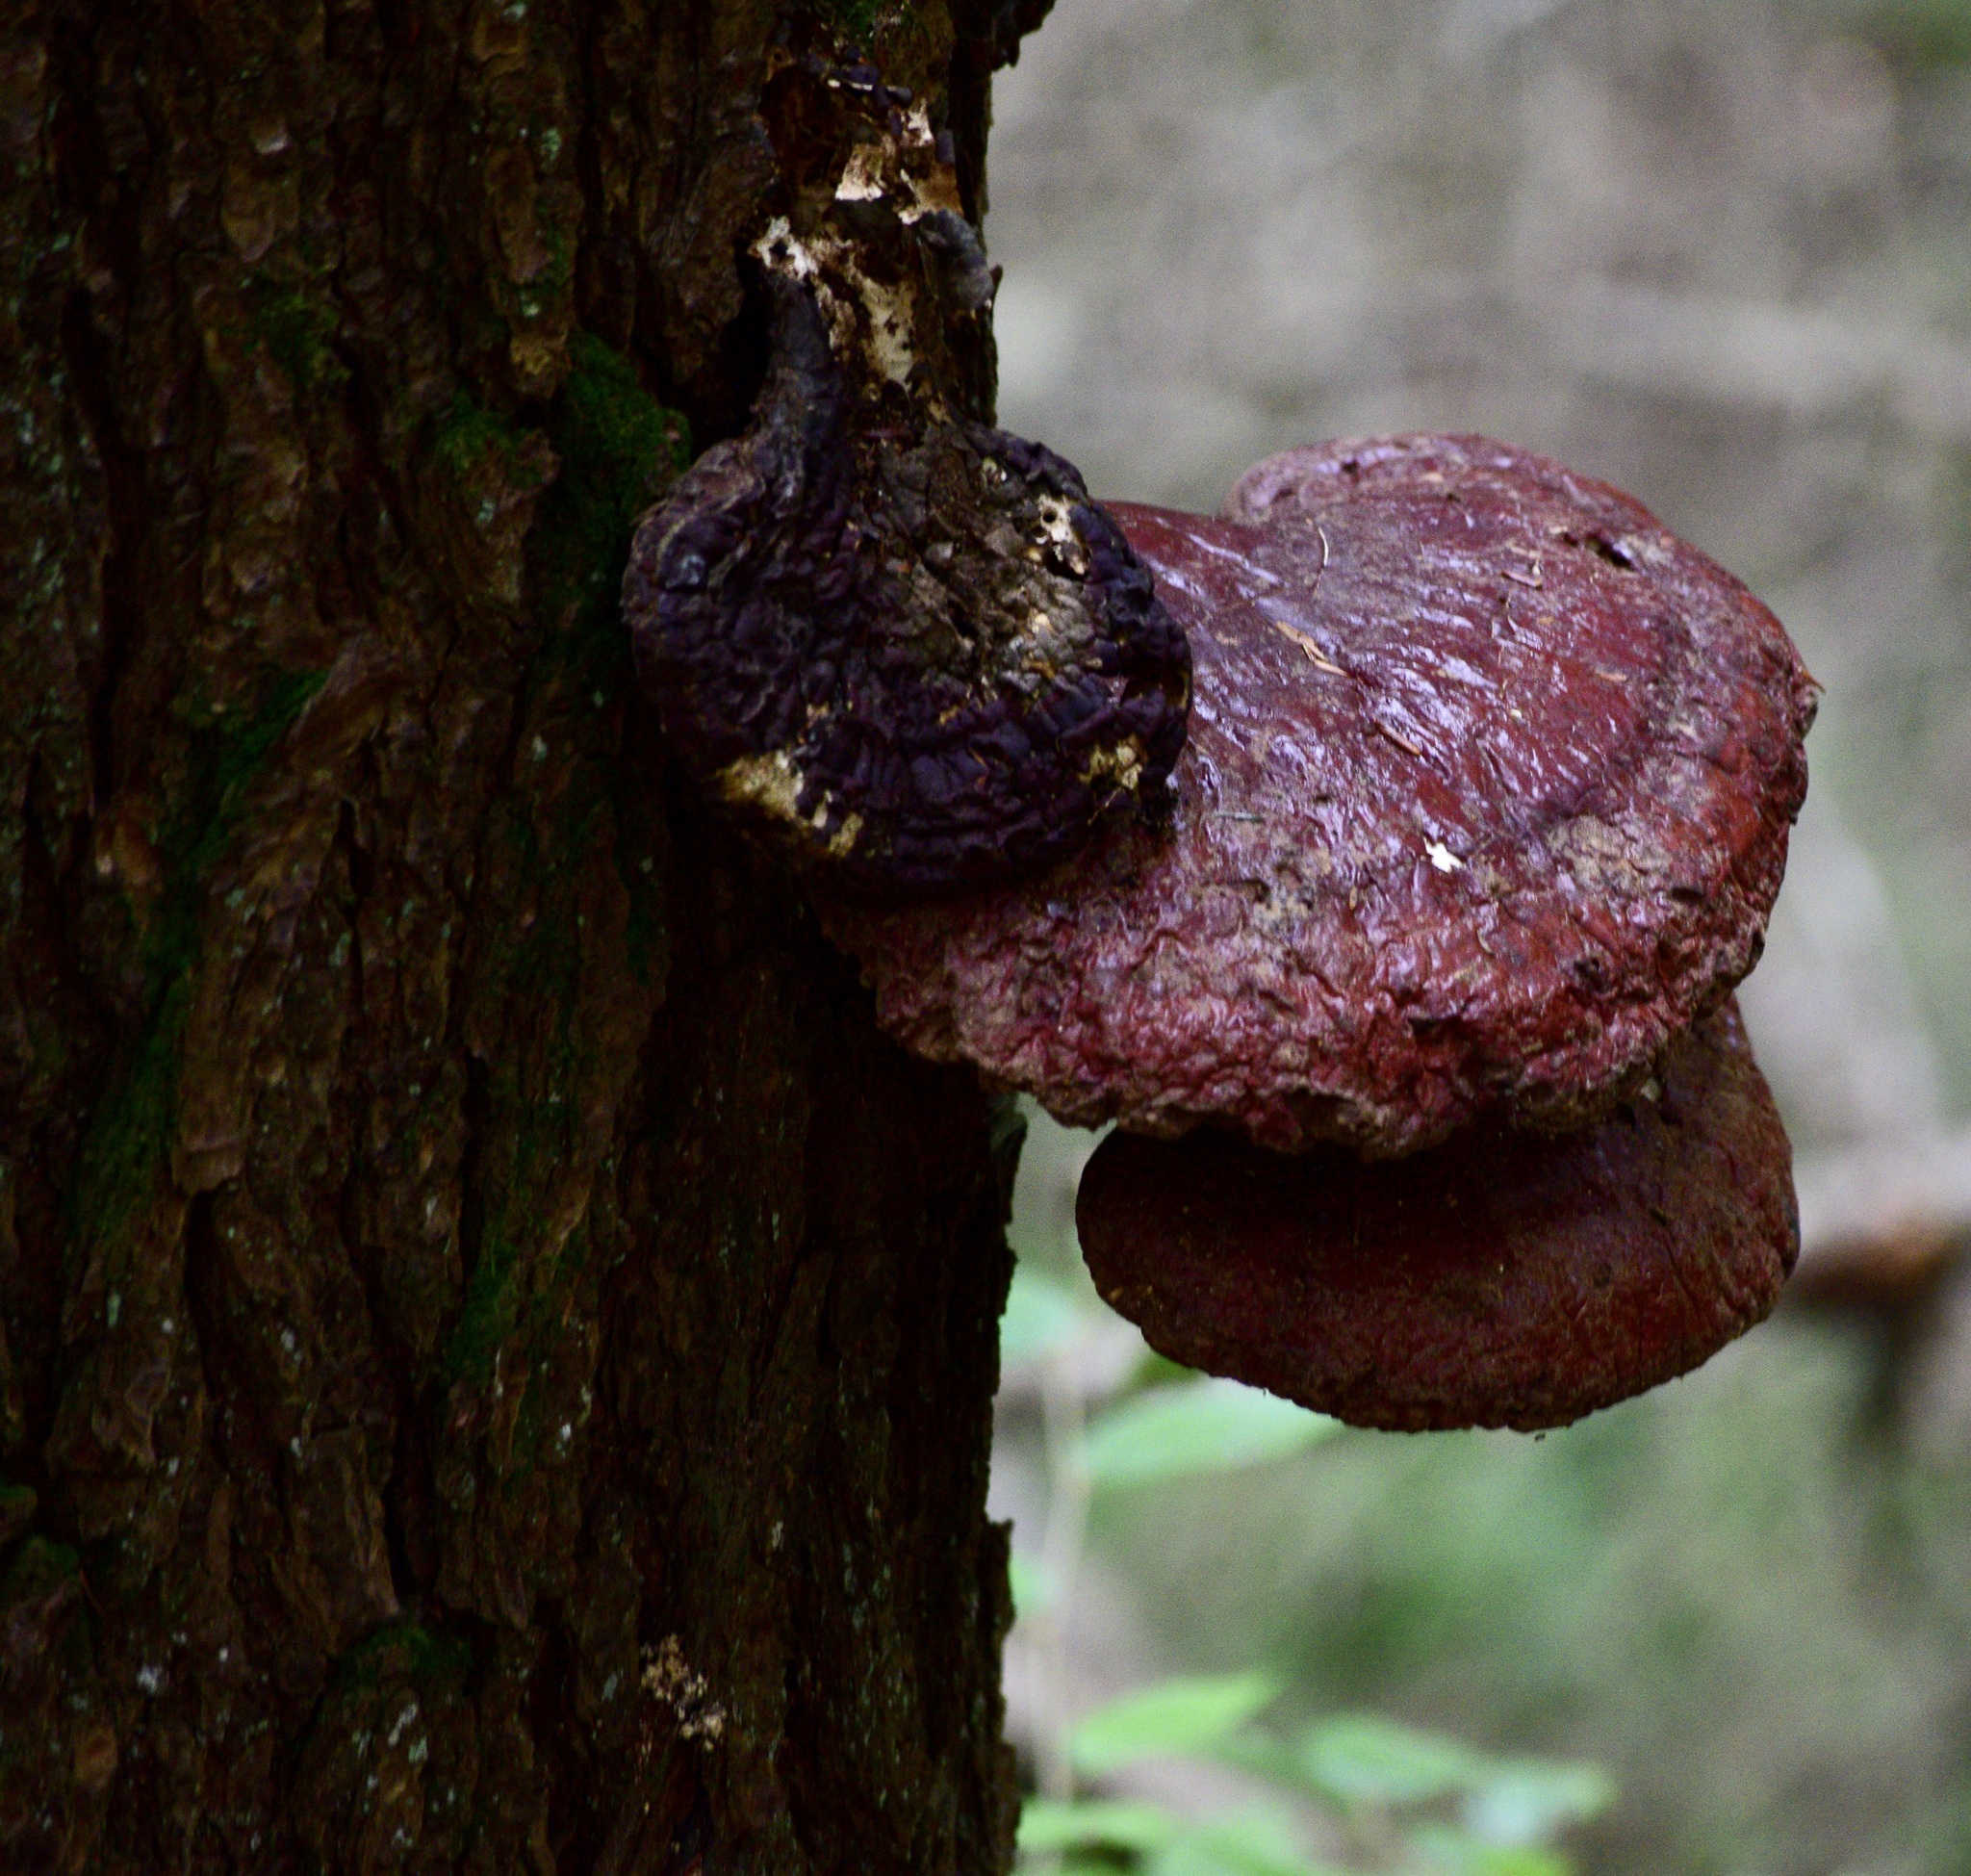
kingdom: Fungi
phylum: Basidiomycota
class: Agaricomycetes
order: Polyporales
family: Polyporaceae
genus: Ganoderma
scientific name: Ganoderma tsugae
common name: Hemlock varnish shelf
